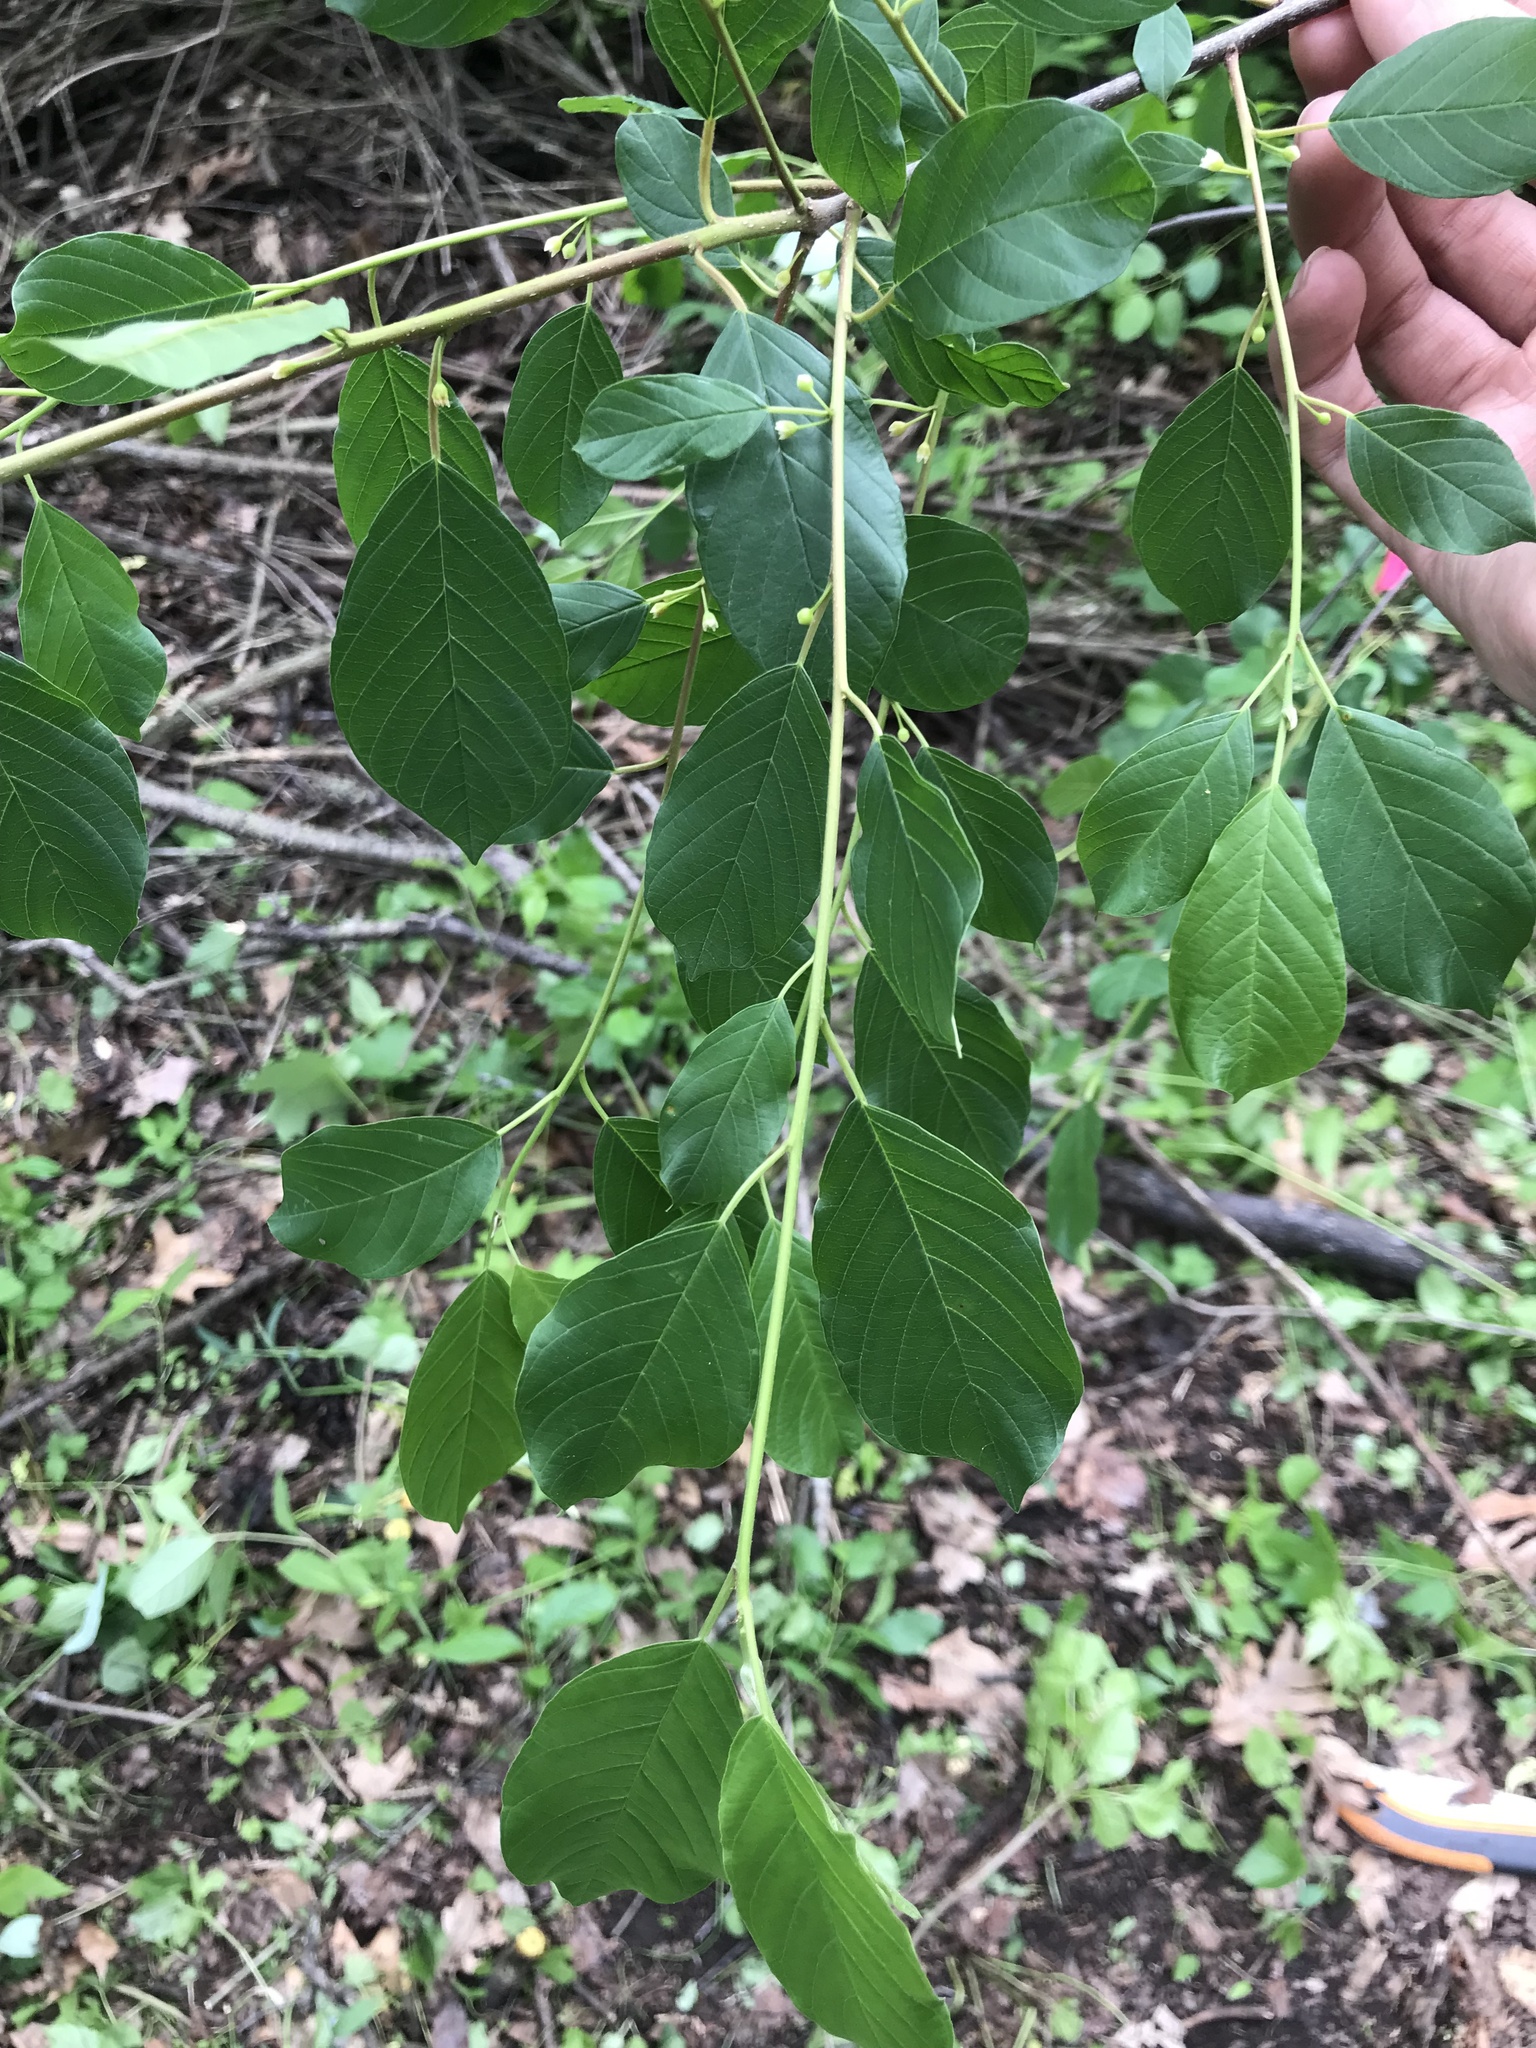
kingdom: Plantae
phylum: Tracheophyta
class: Magnoliopsida
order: Rosales
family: Rhamnaceae
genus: Frangula
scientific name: Frangula alnus
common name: Alder buckthorn
